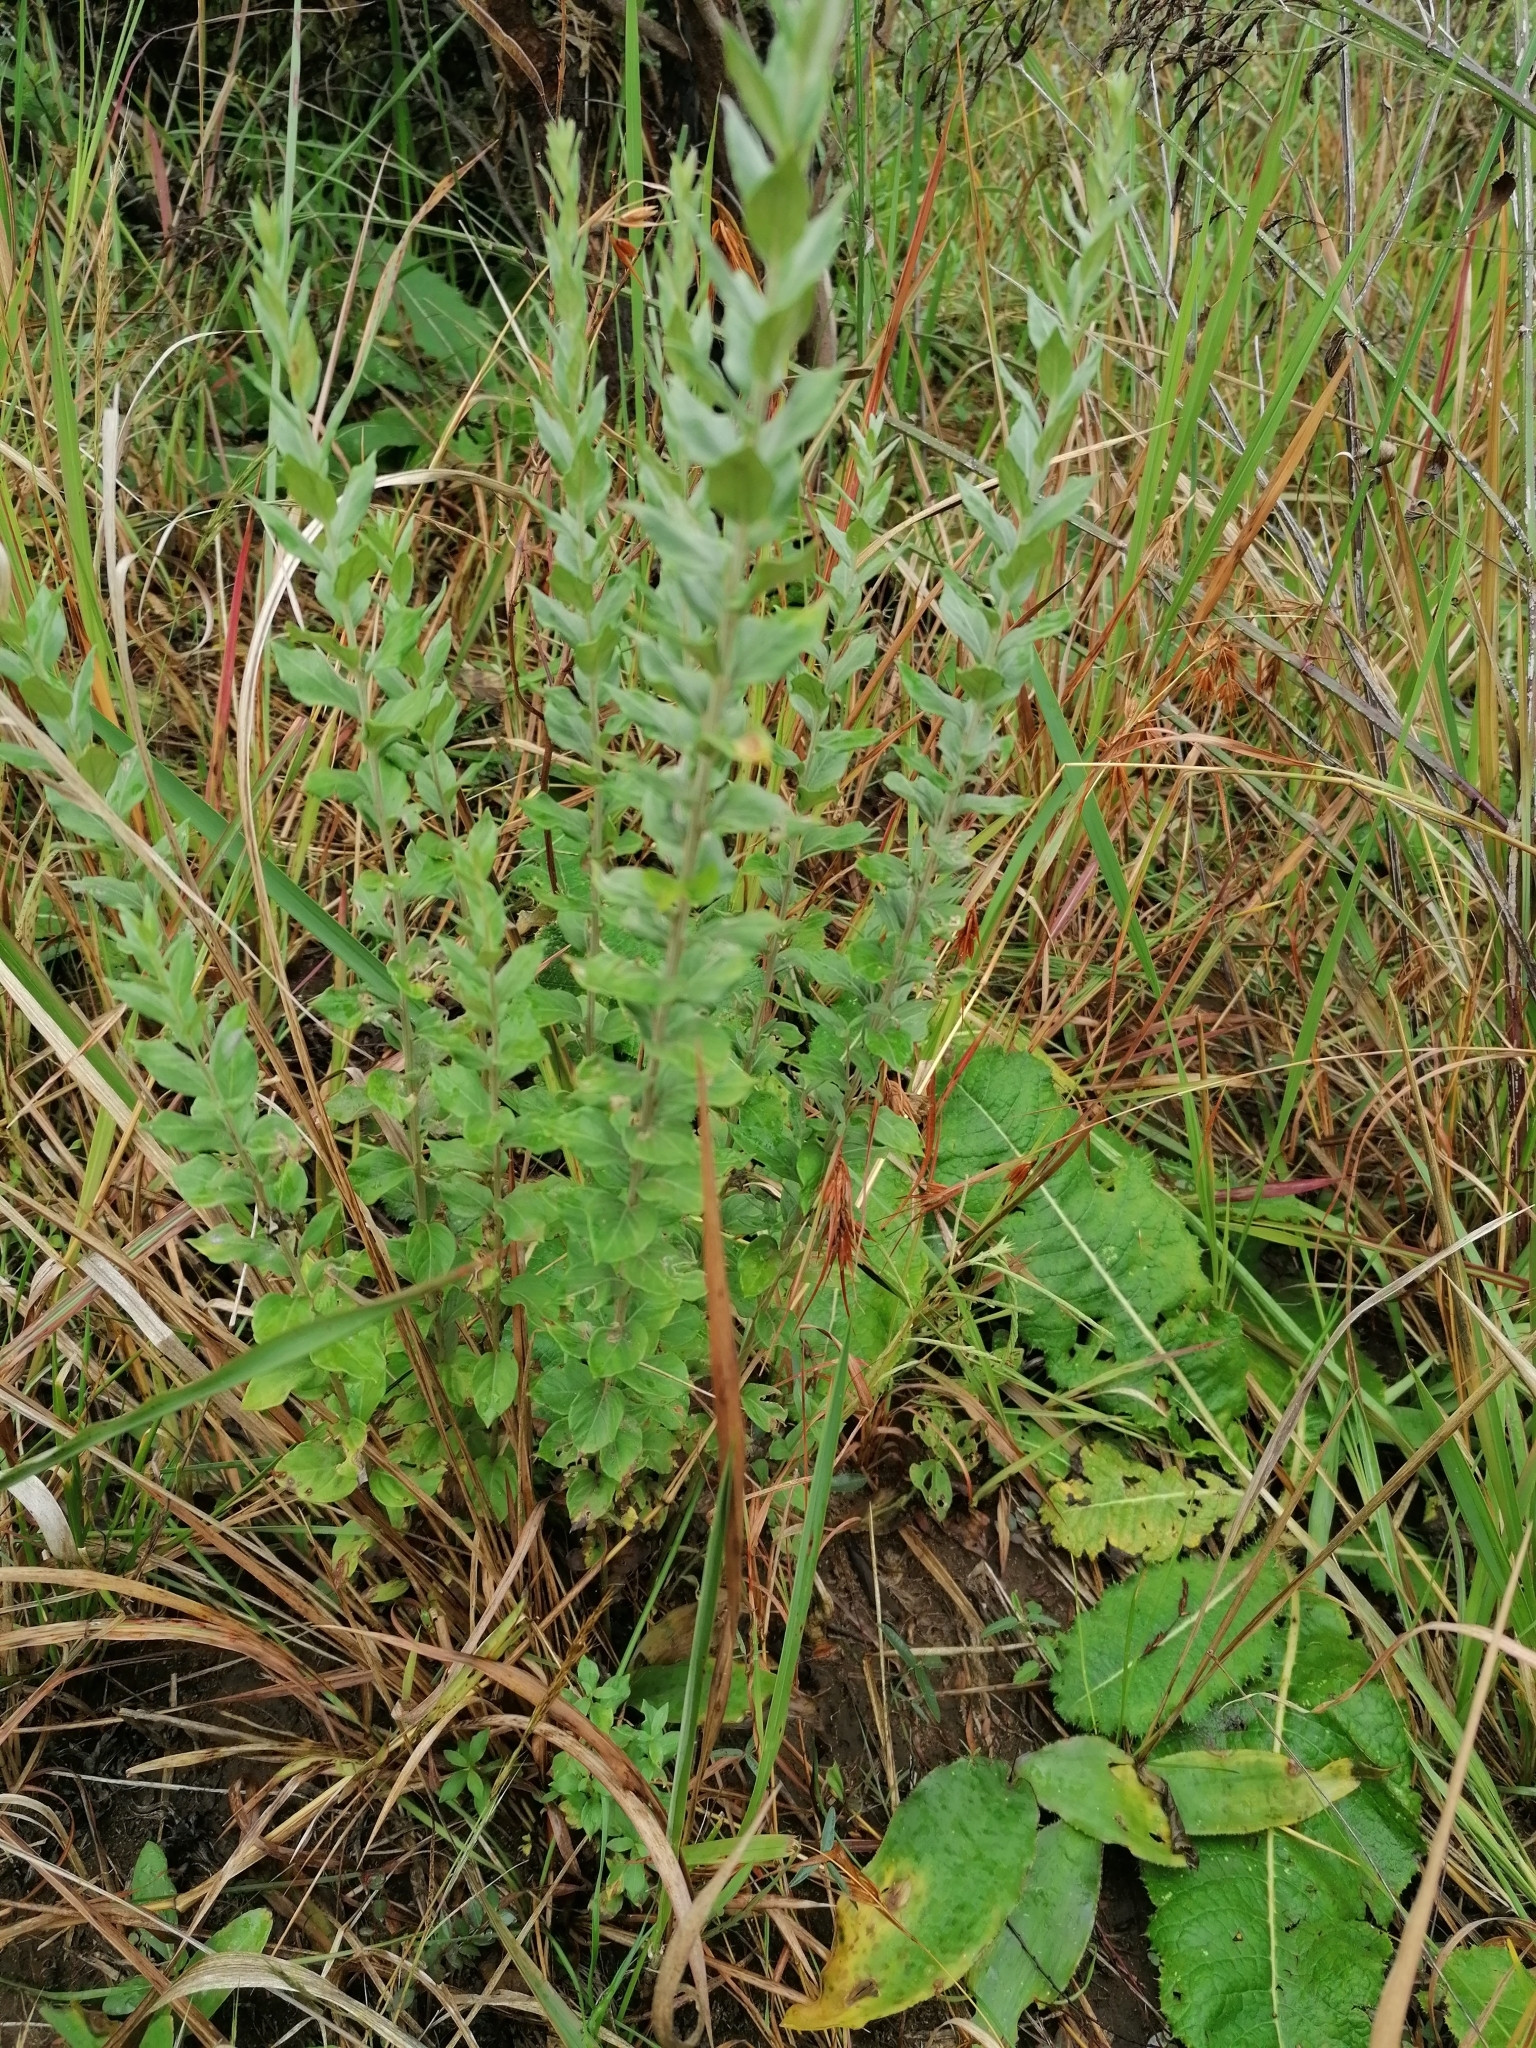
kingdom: Plantae
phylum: Tracheophyta
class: Magnoliopsida
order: Asterales
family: Asteraceae
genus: Hilliardiella
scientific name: Hilliardiella oligocephala
